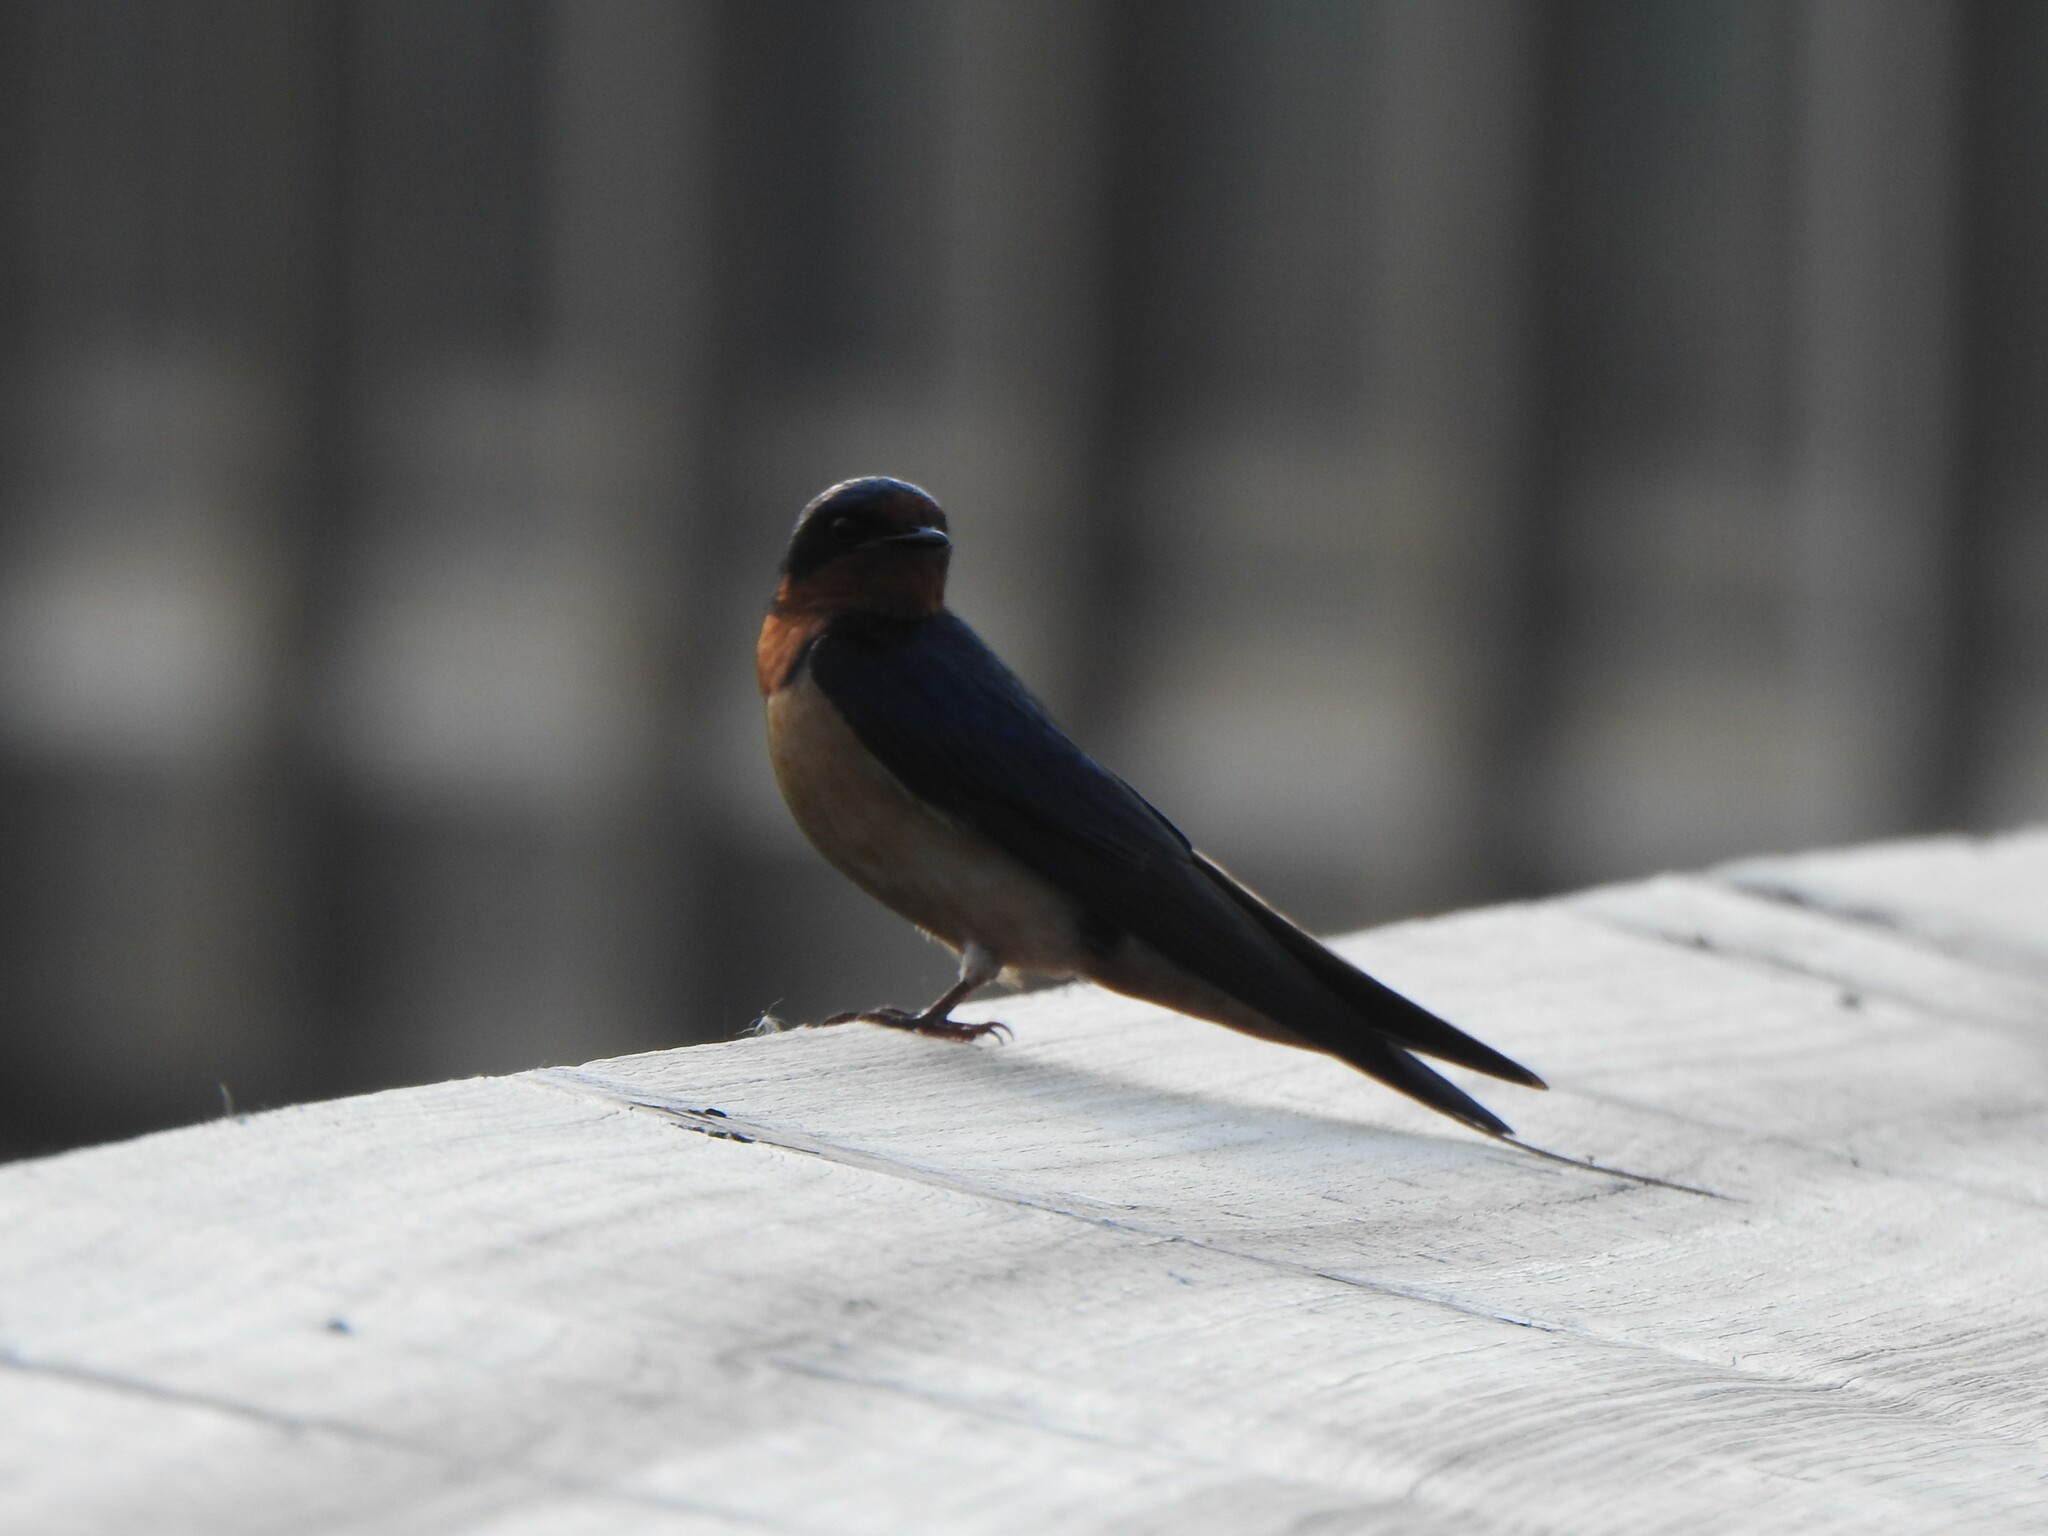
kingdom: Animalia
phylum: Chordata
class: Aves
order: Passeriformes
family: Hirundinidae
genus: Hirundo
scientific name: Hirundo rustica
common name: Barn swallow
